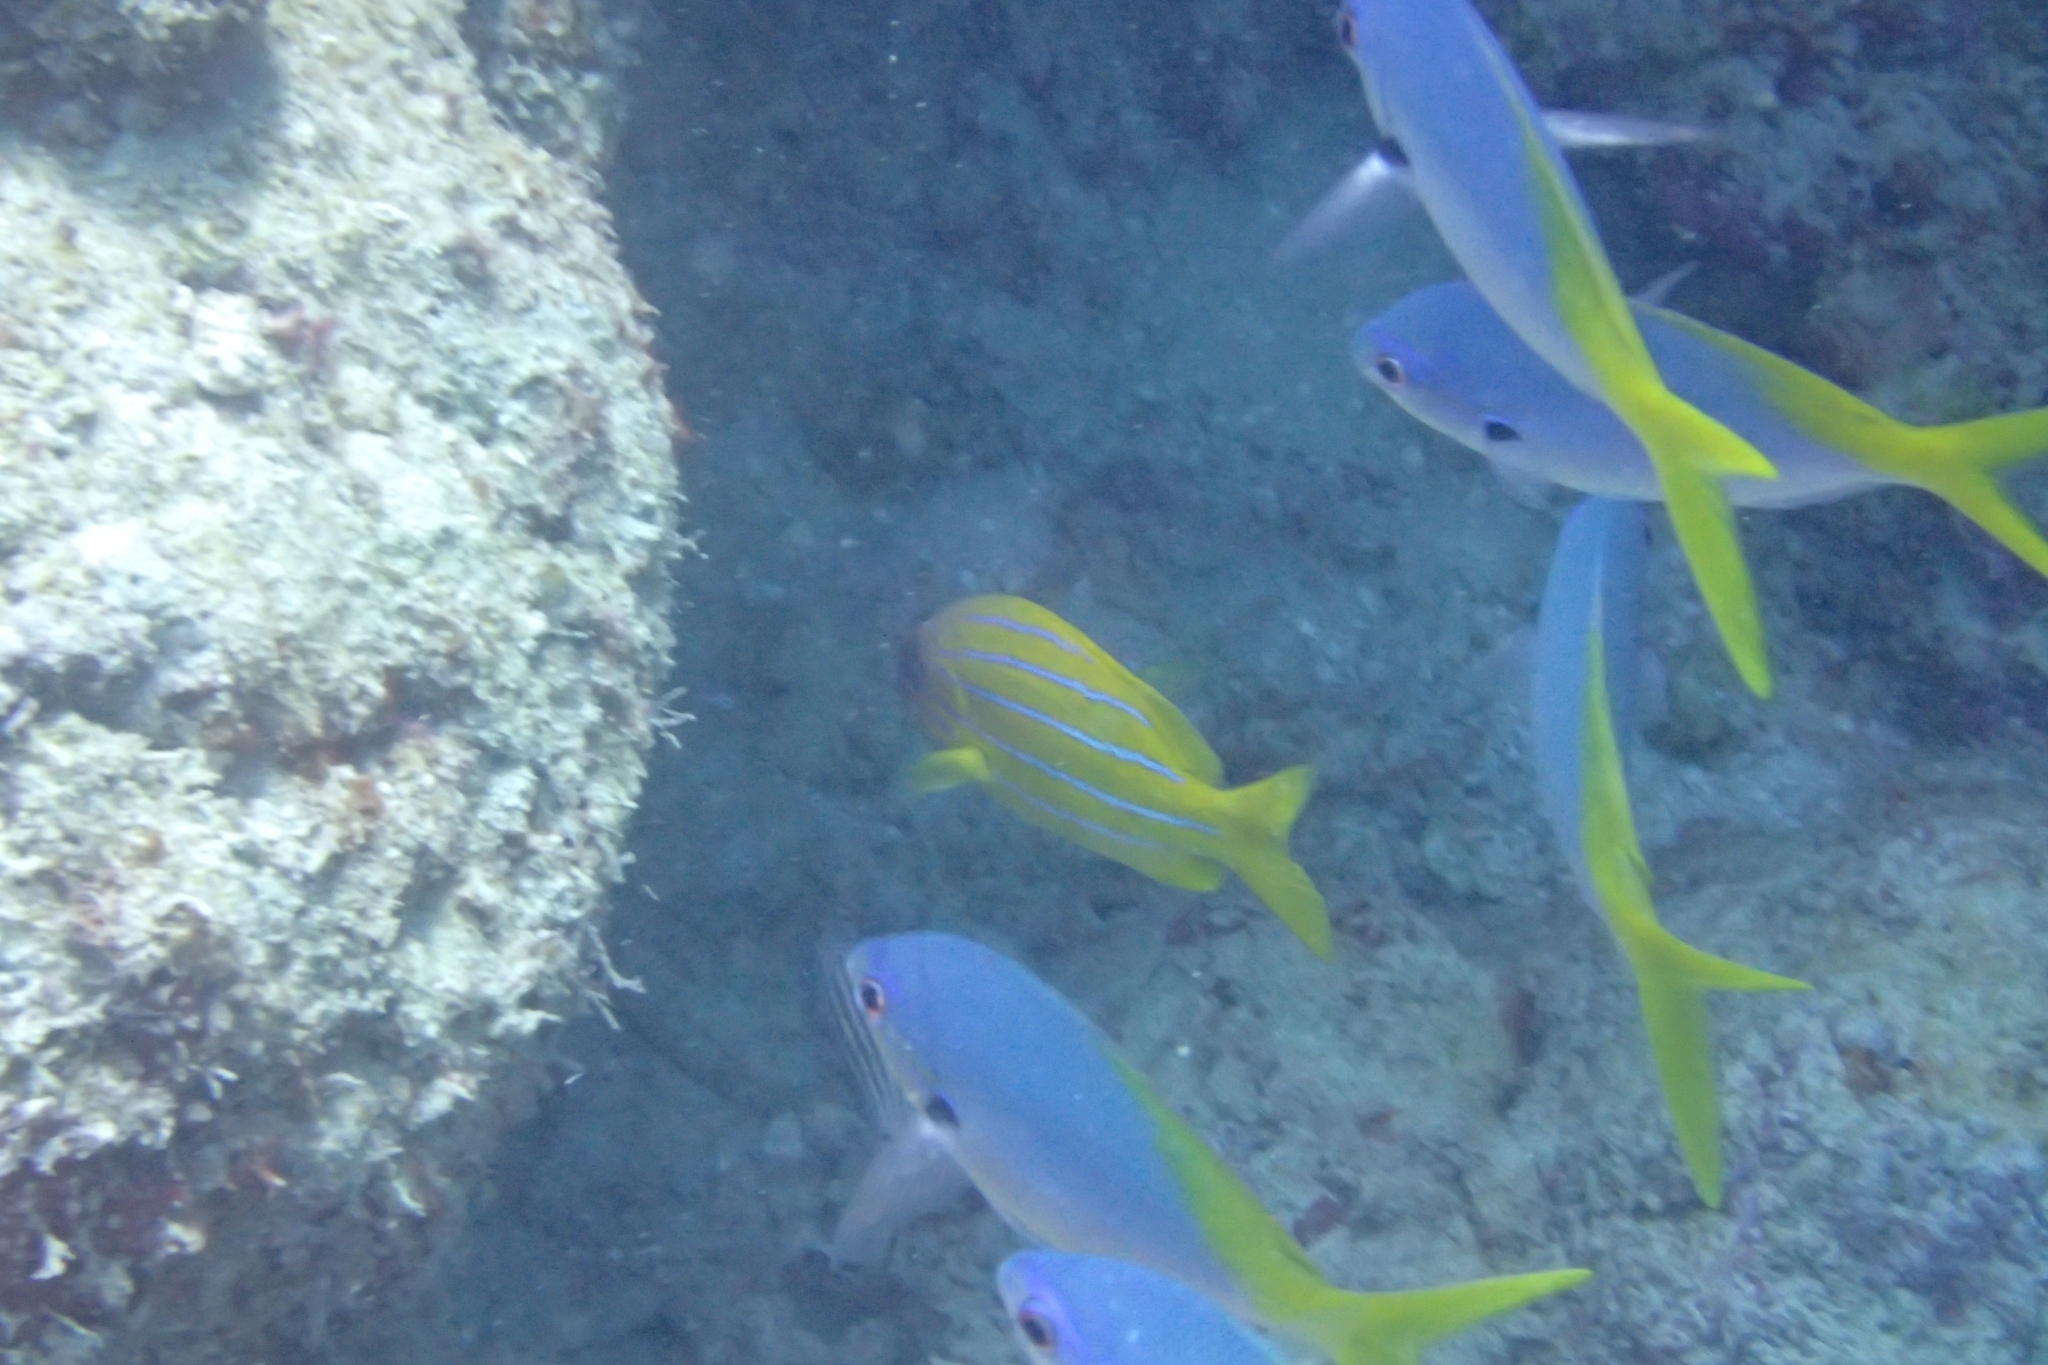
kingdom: Animalia
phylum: Chordata
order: Perciformes
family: Caesionidae
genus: Caesio
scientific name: Caesio teres
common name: Yellow and blueback fusilier
